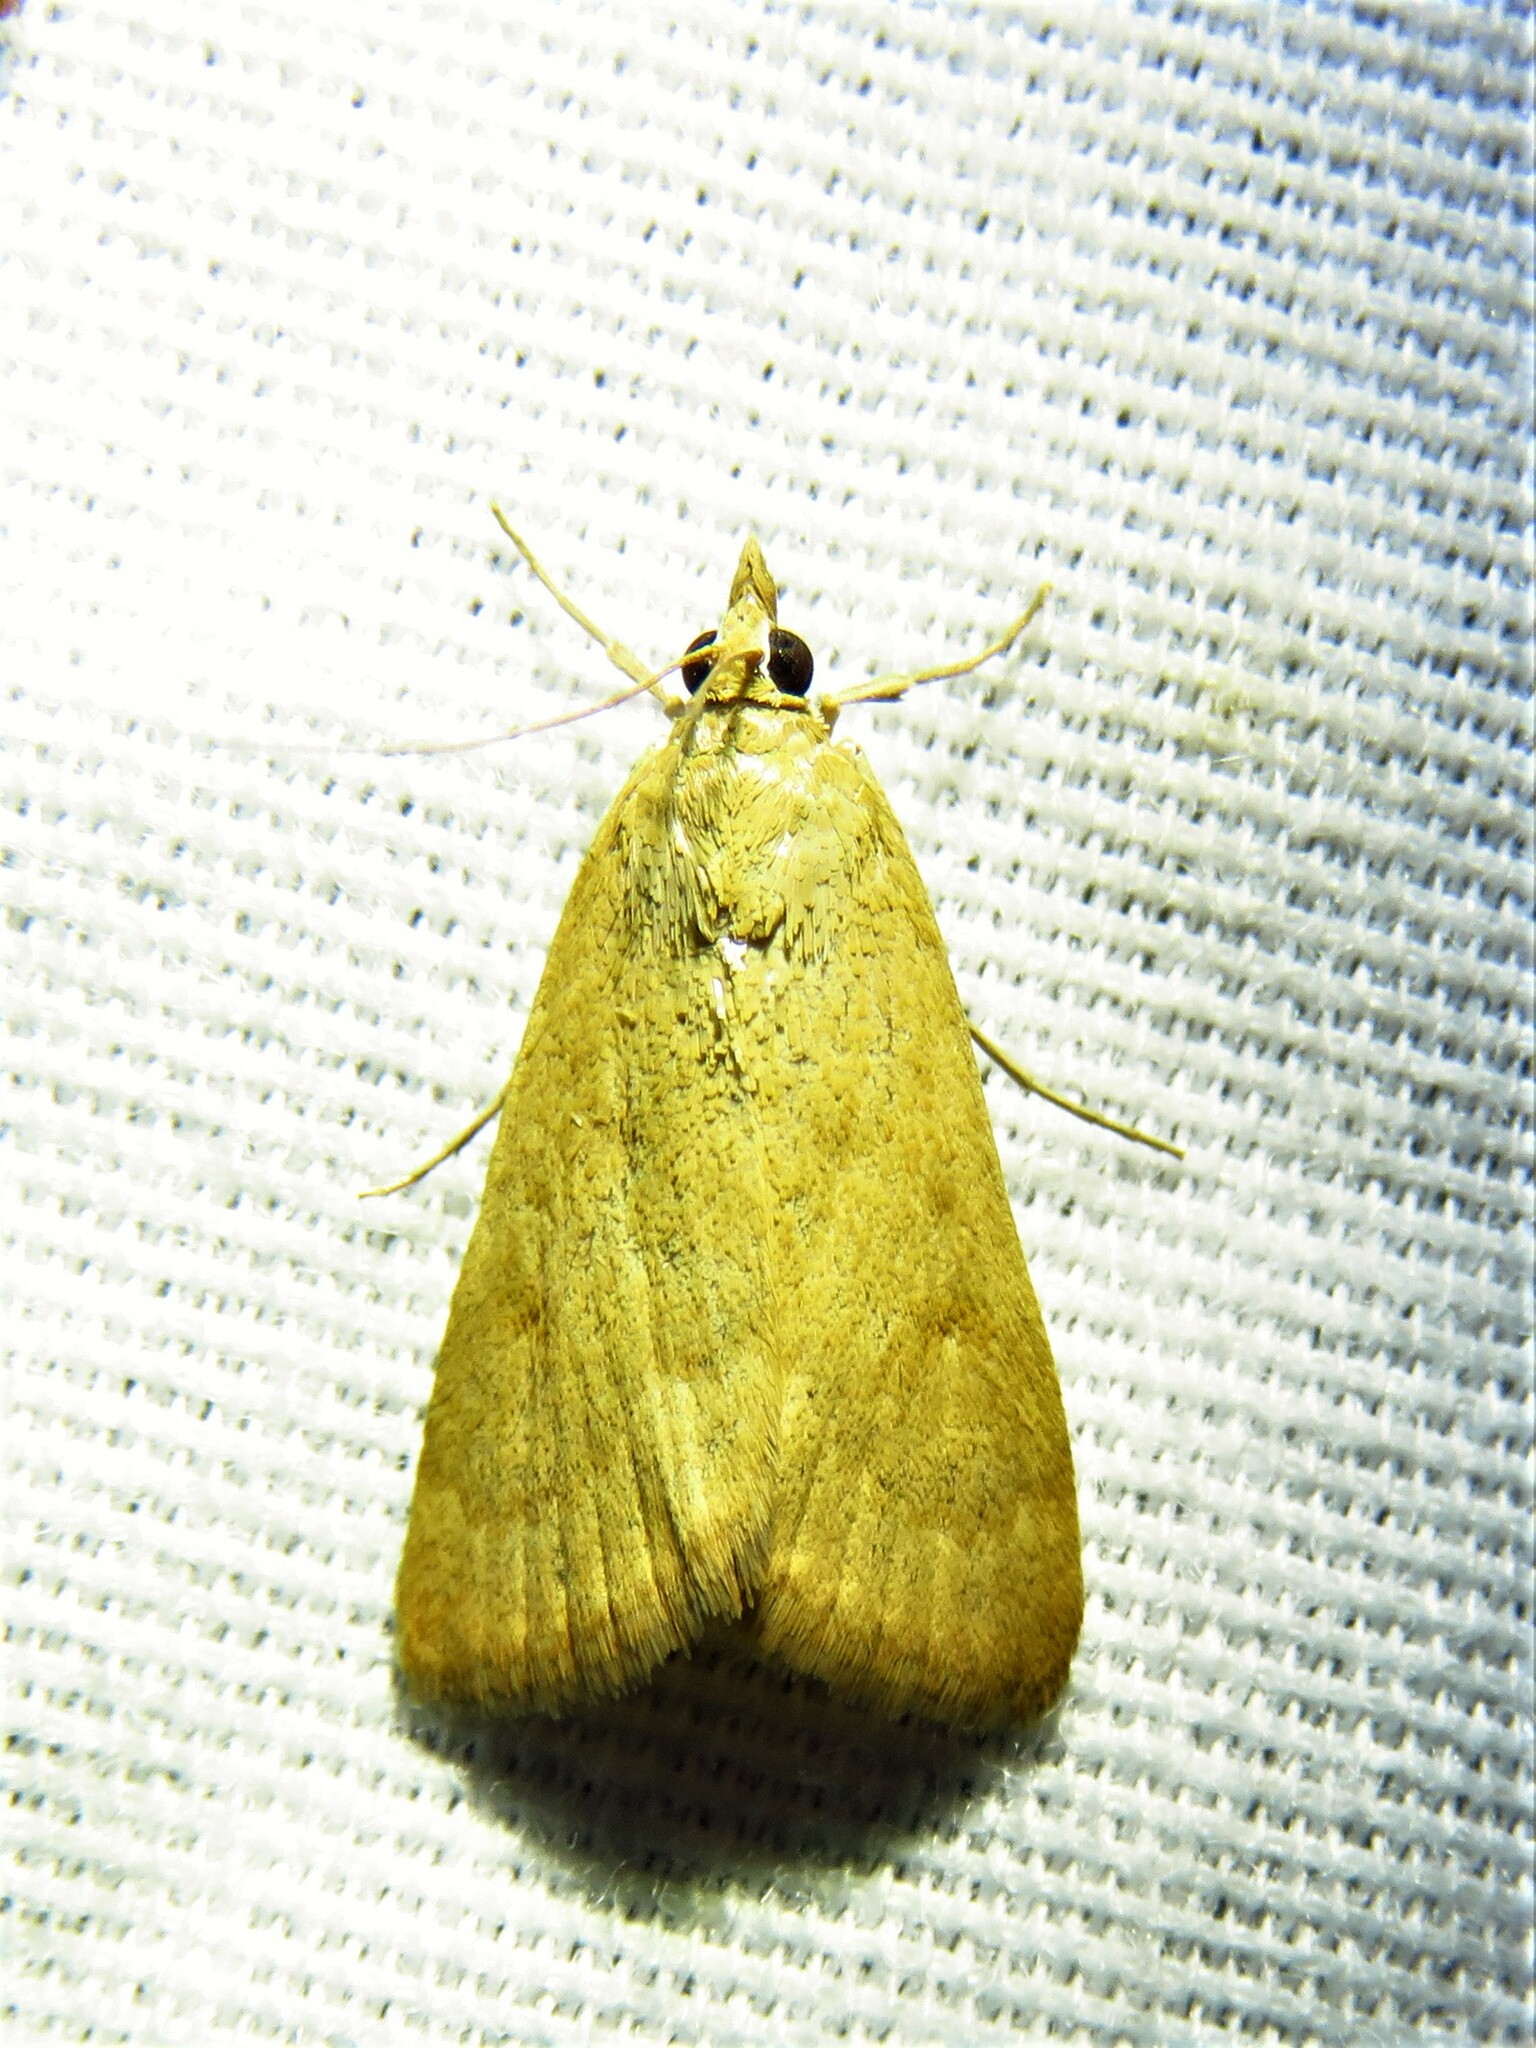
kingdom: Animalia
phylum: Arthropoda
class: Insecta
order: Lepidoptera
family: Crambidae
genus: Achyra
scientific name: Achyra rantalis
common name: Garden webworm
